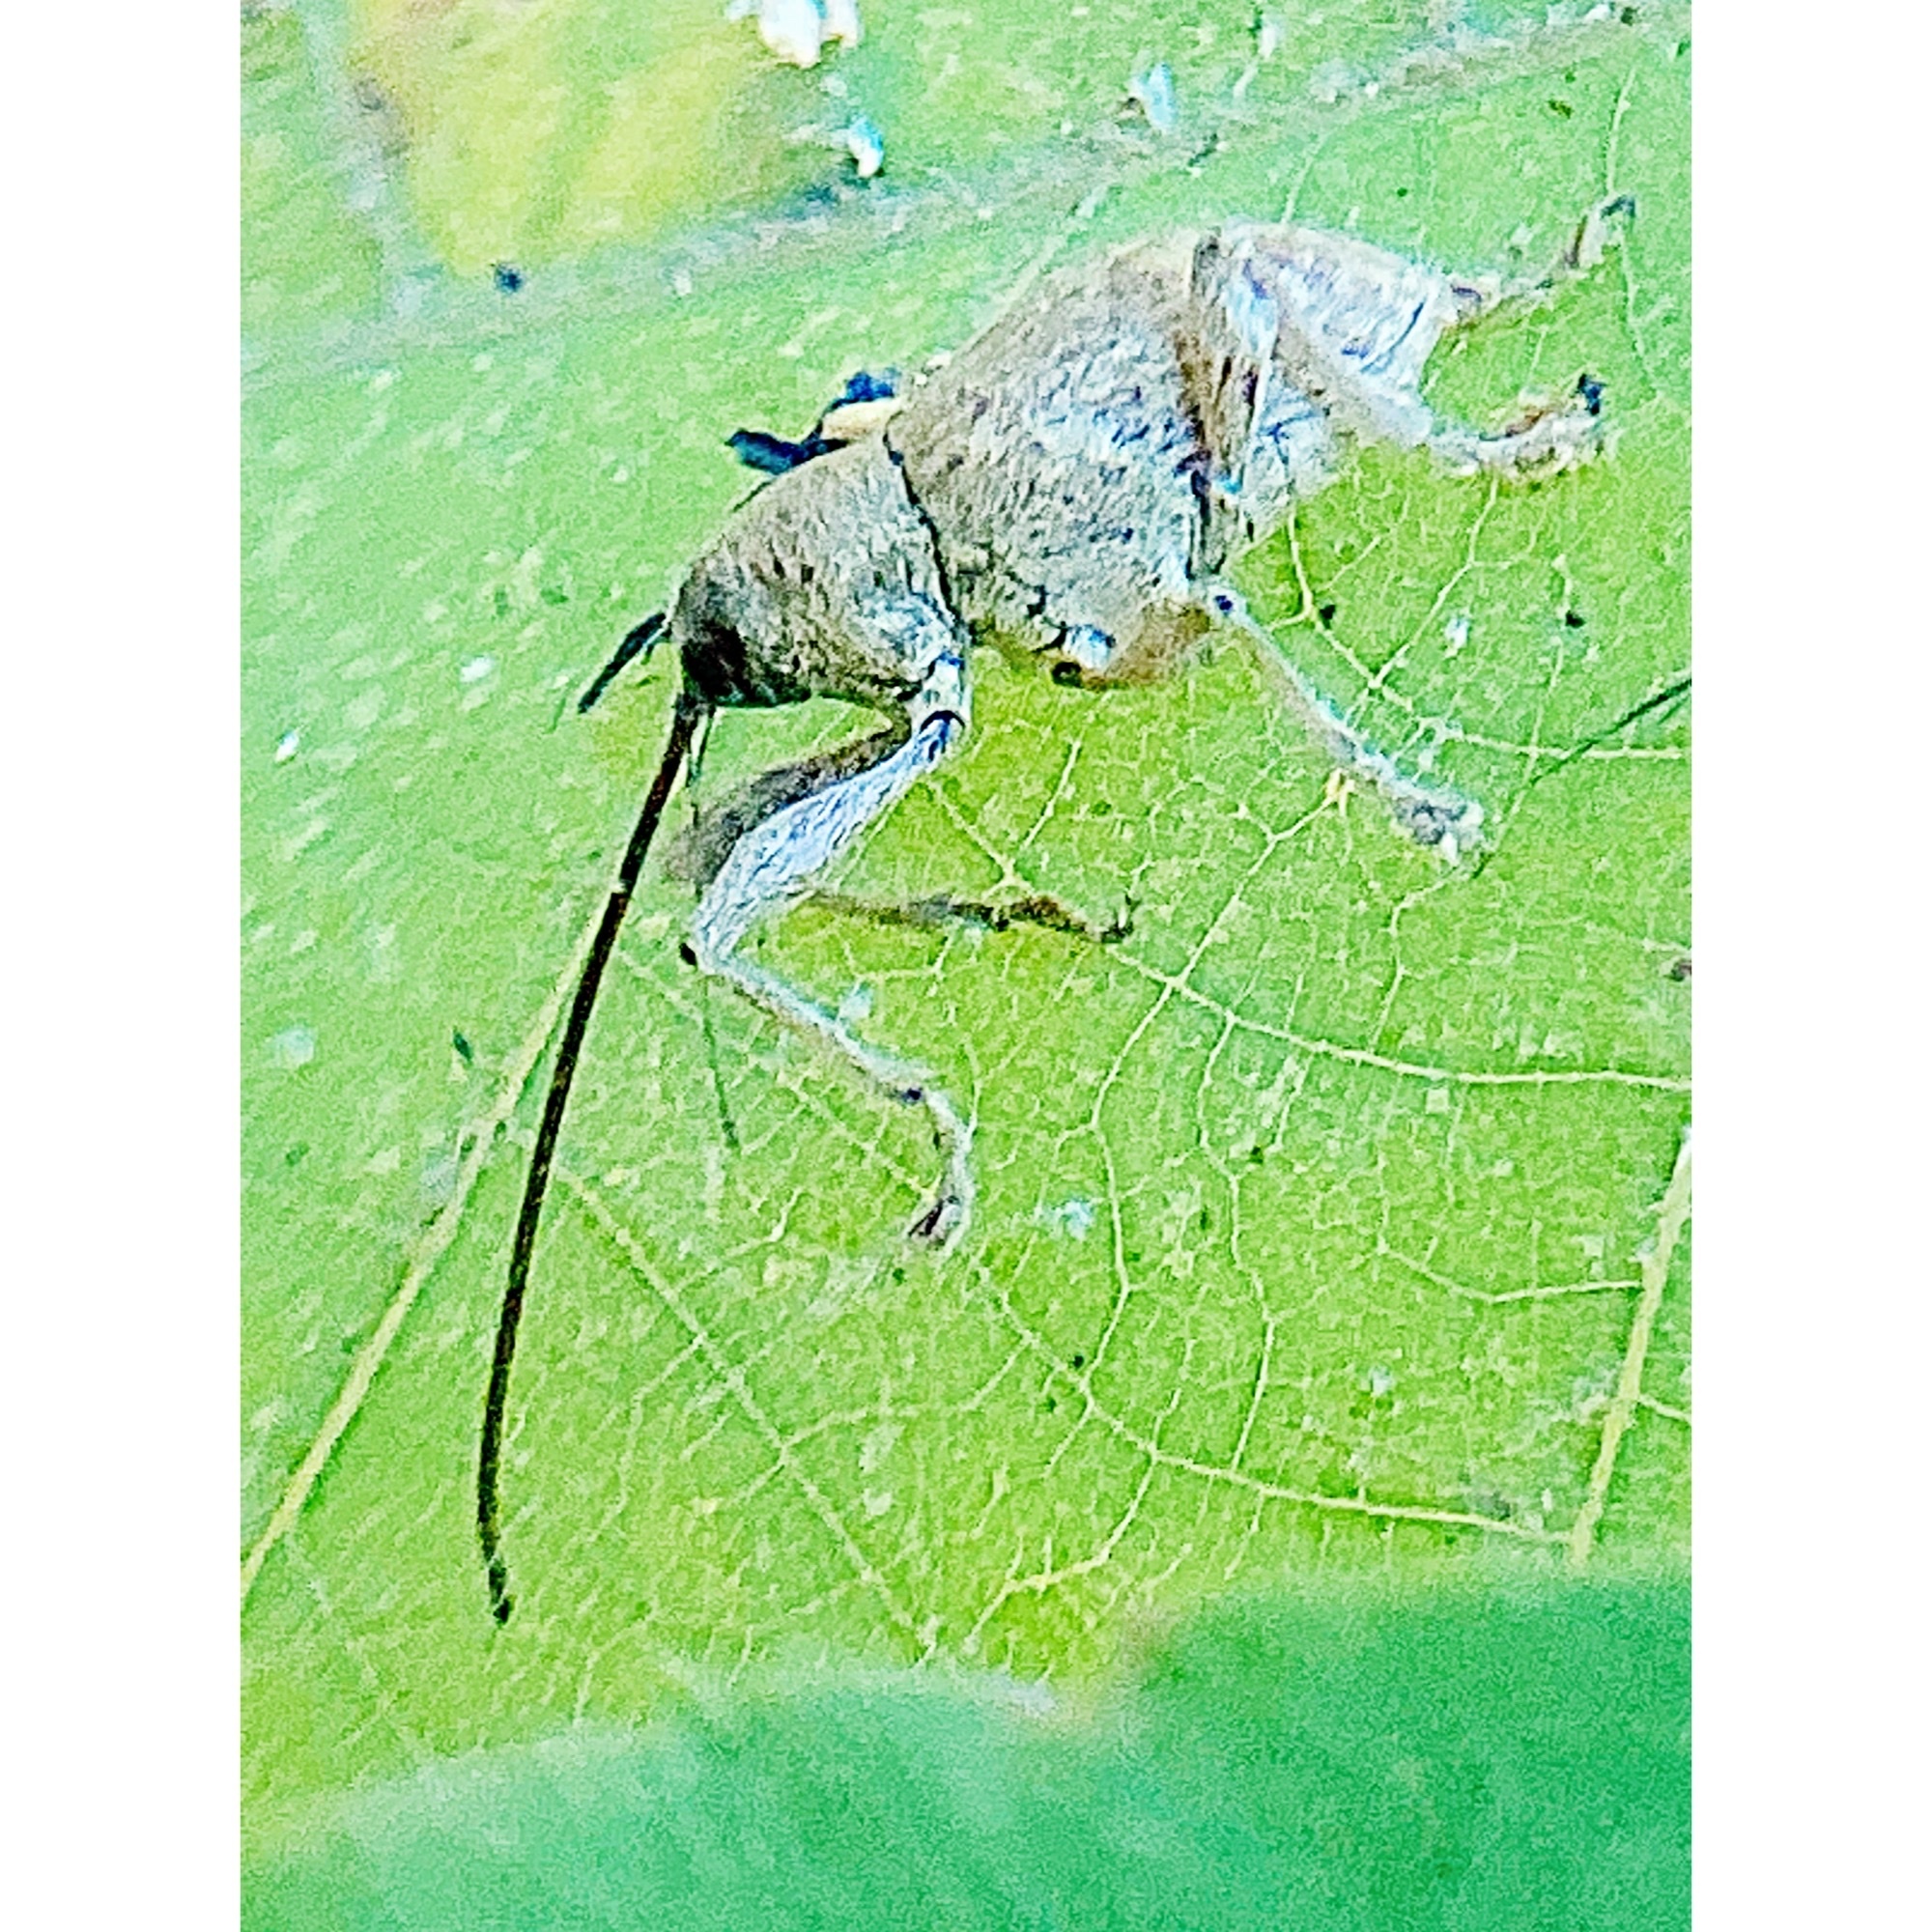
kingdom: Animalia
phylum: Arthropoda
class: Insecta
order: Coleoptera
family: Curculionidae
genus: Curculio
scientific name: Curculio proboscideus
